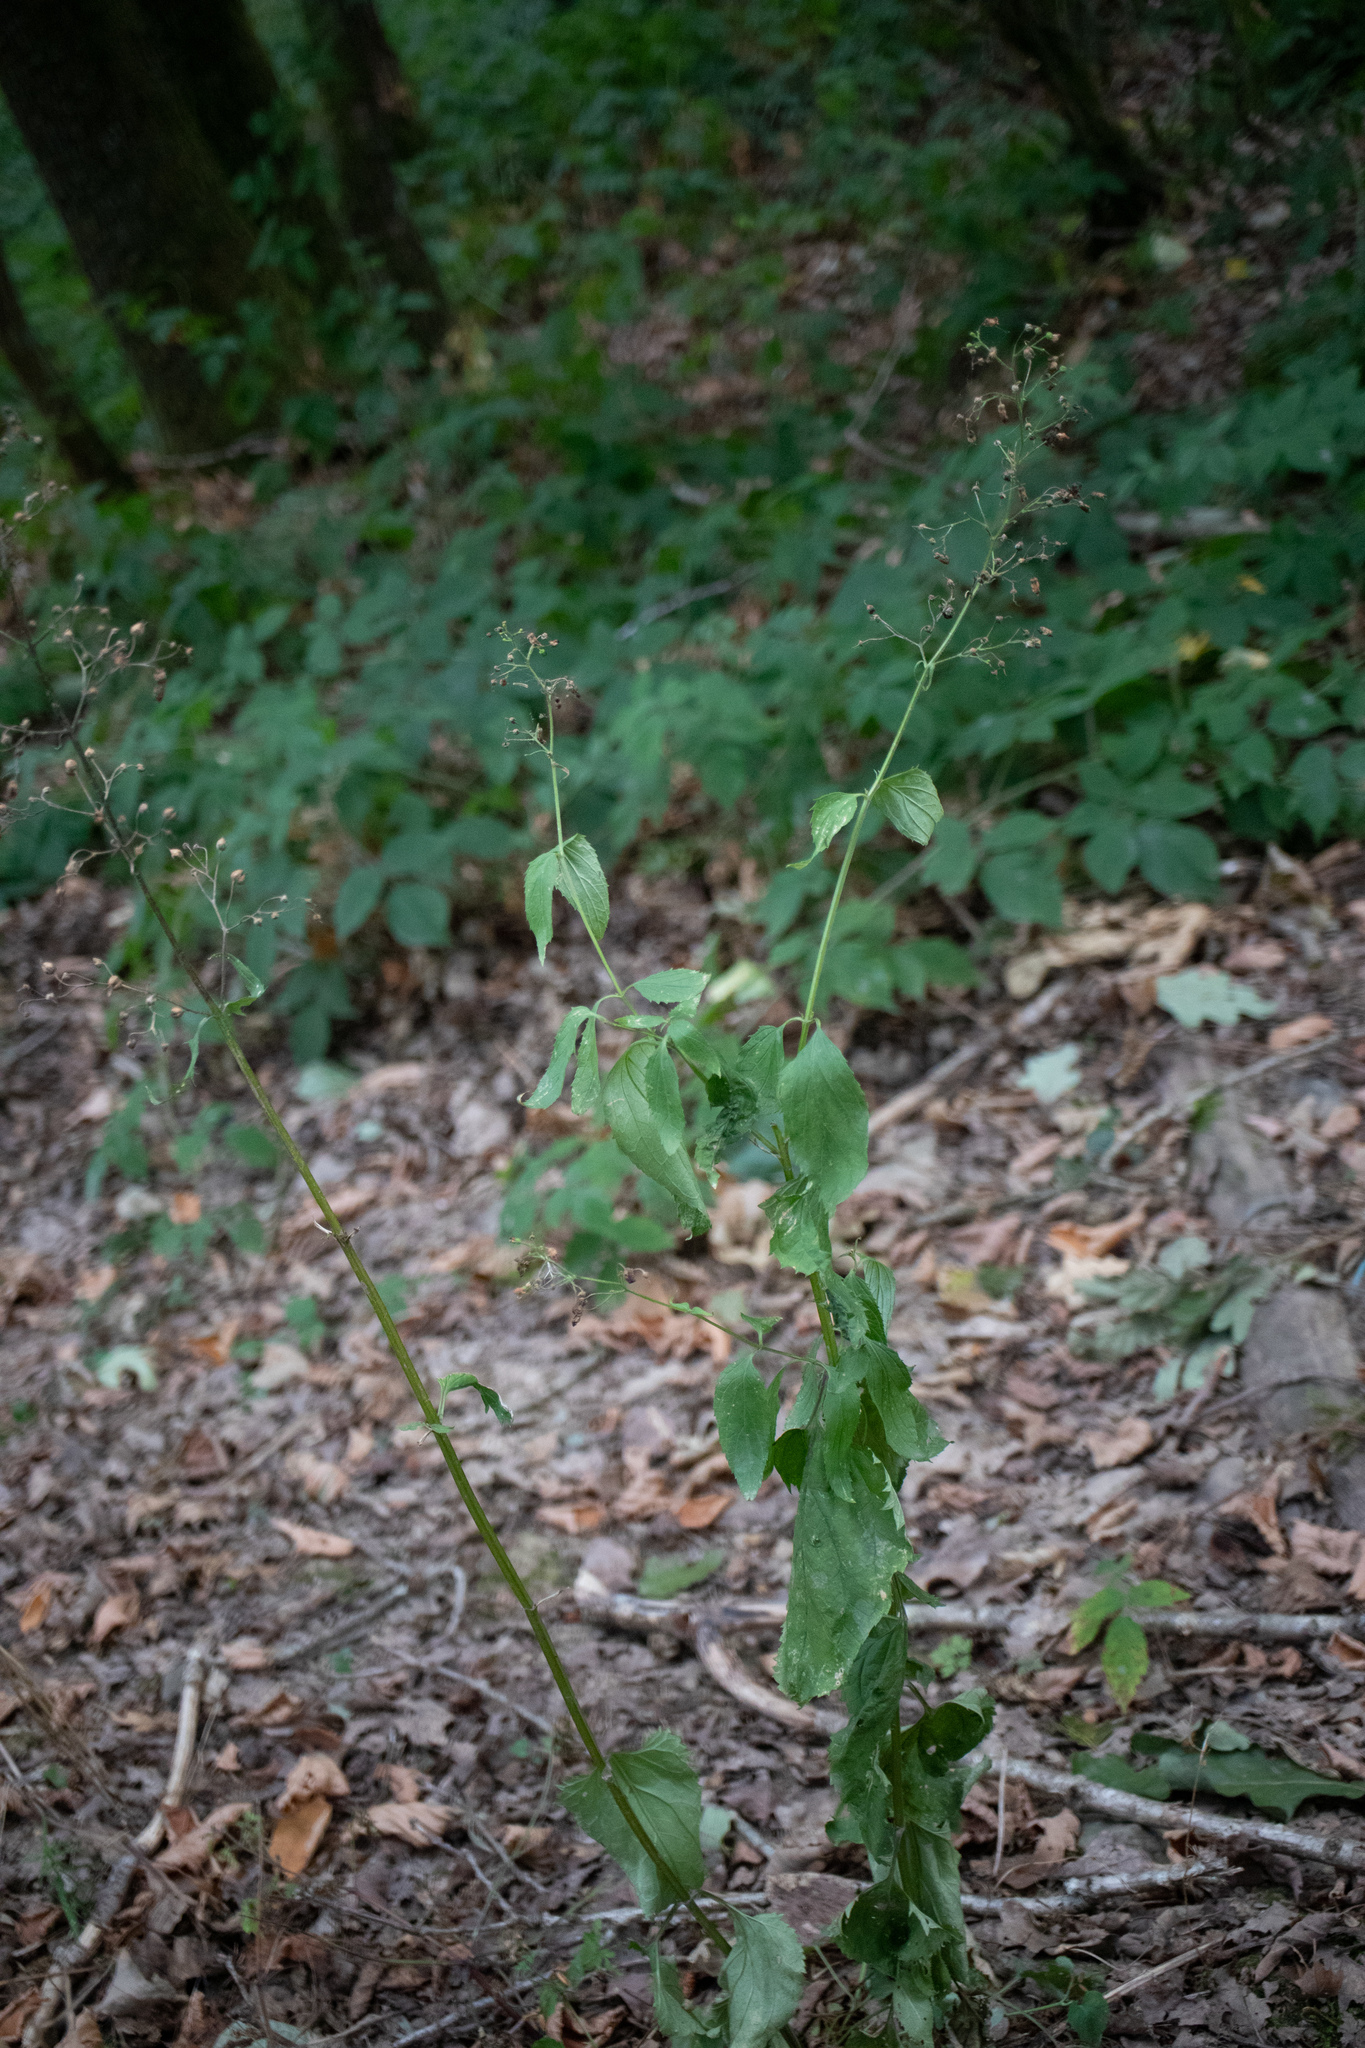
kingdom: Plantae
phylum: Tracheophyta
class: Magnoliopsida
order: Lamiales
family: Scrophulariaceae
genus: Scrophularia
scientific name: Scrophularia nodosa
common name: Common figwort
